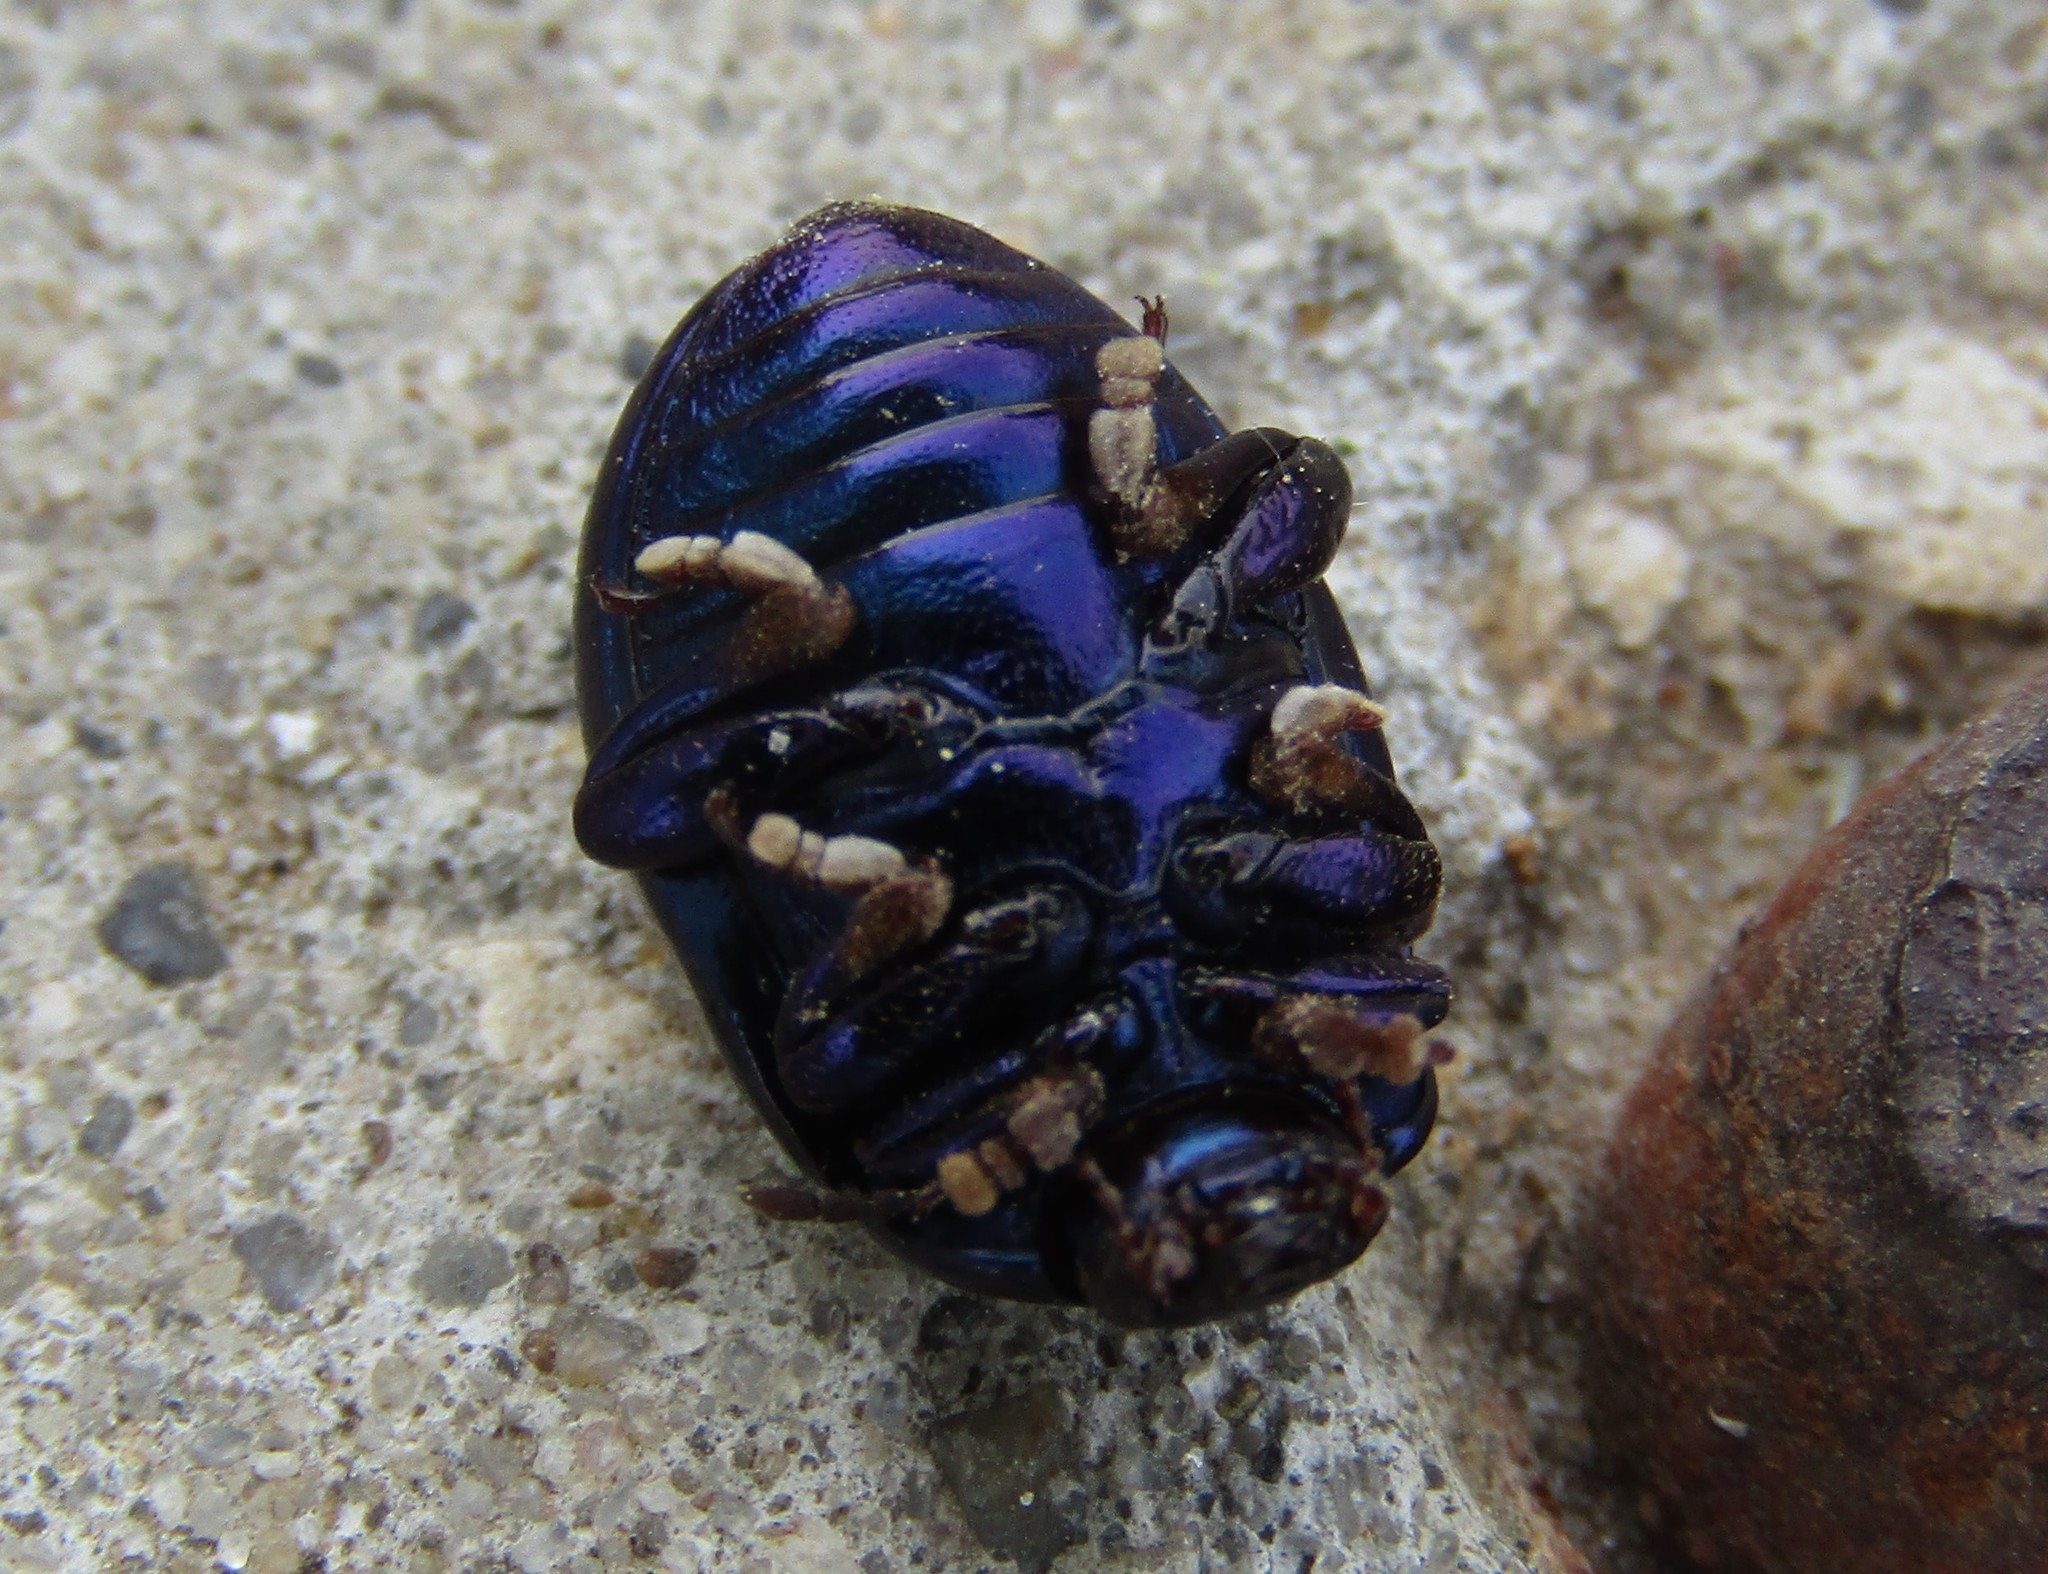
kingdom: Animalia
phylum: Arthropoda
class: Insecta
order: Coleoptera
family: Chrysomelidae
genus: Chrysolina
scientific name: Chrysolina sturmi
